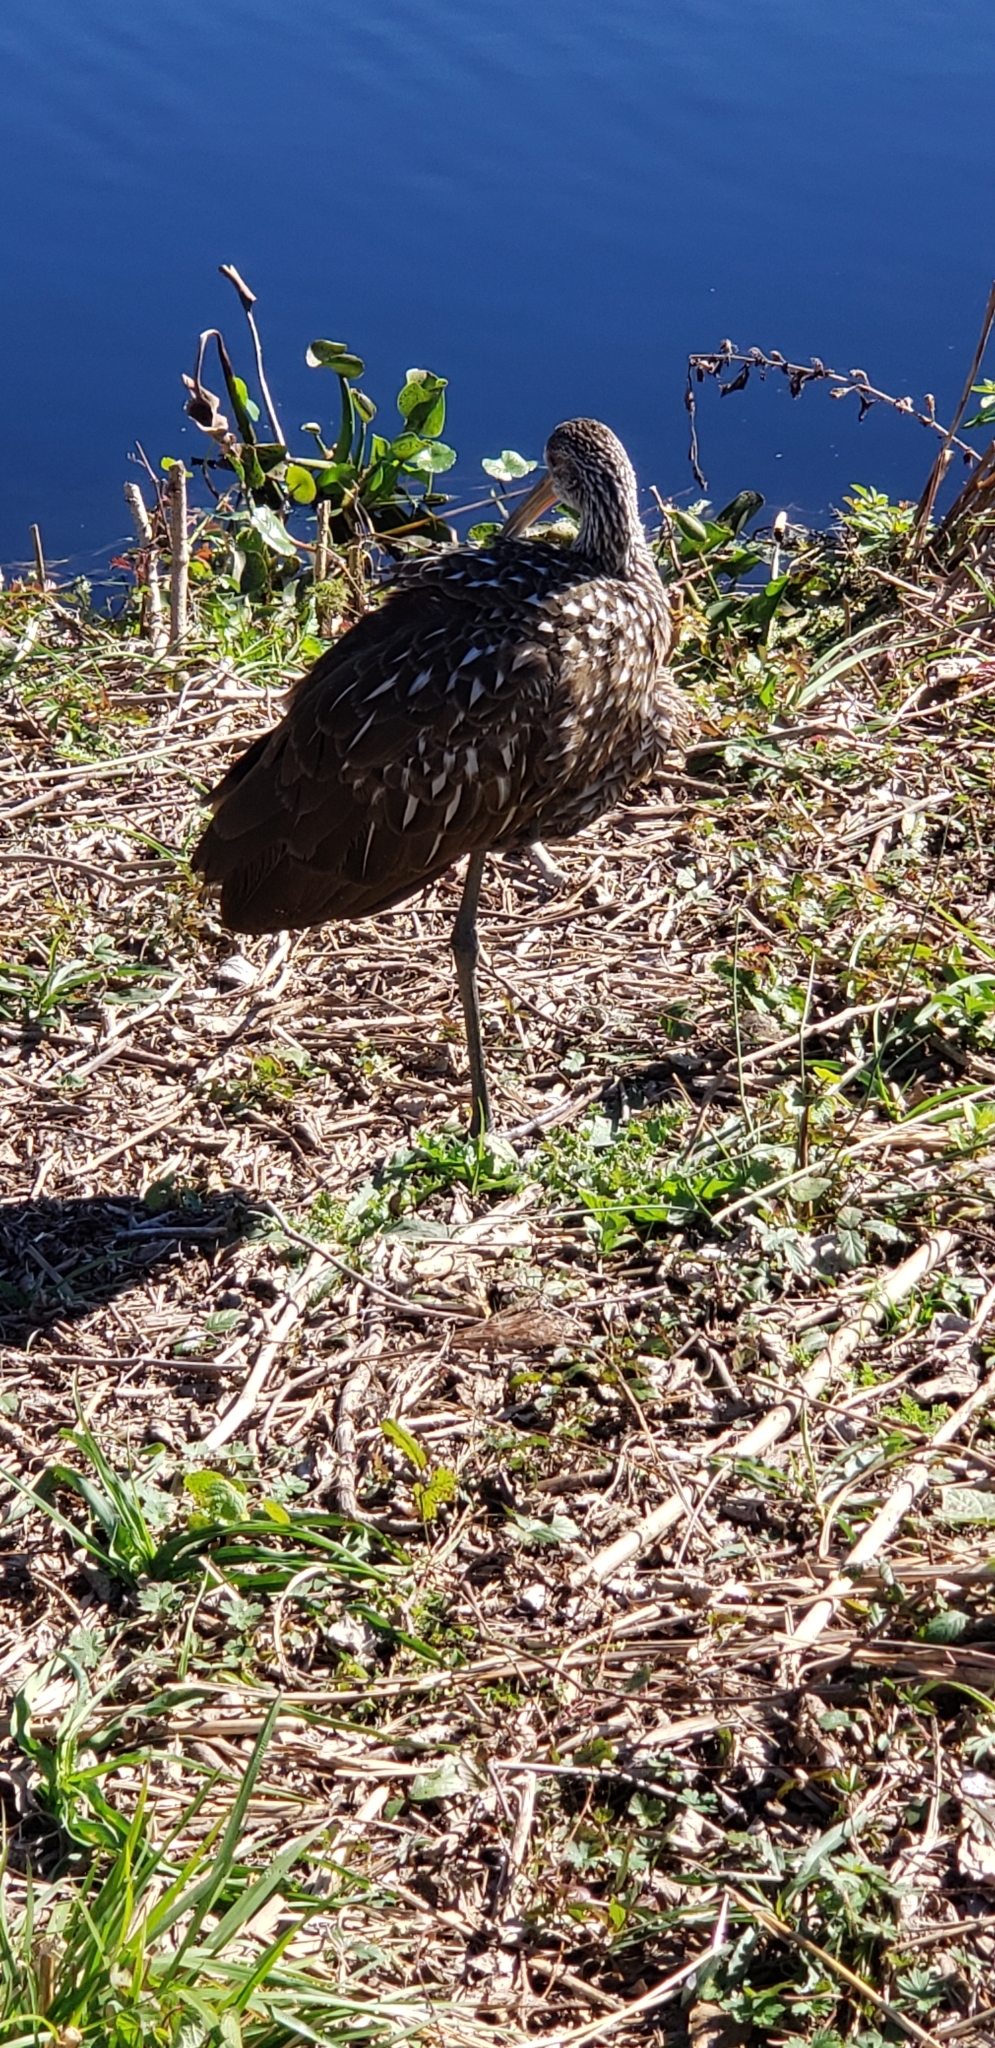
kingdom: Animalia
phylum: Chordata
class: Aves
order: Gruiformes
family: Aramidae
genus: Aramus
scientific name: Aramus guarauna
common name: Limpkin
